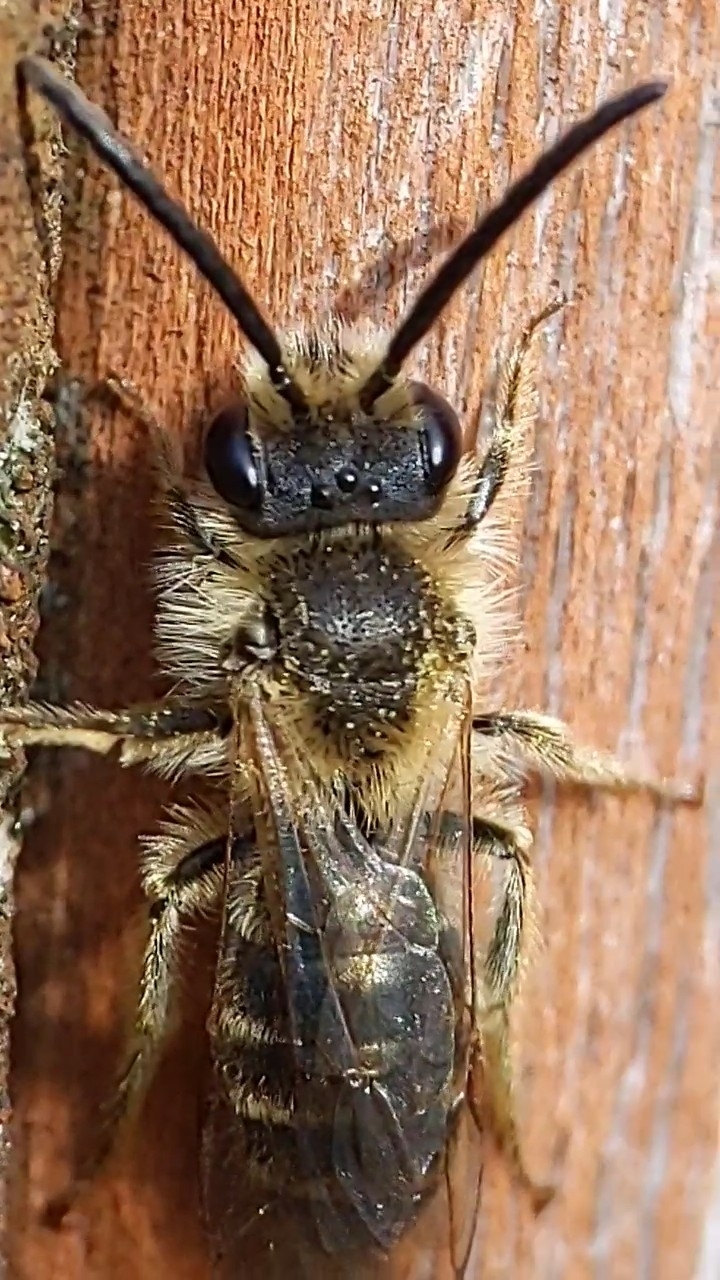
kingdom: Animalia
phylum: Arthropoda
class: Insecta
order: Hymenoptera
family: Andrenidae
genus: Andrena
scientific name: Andrena
